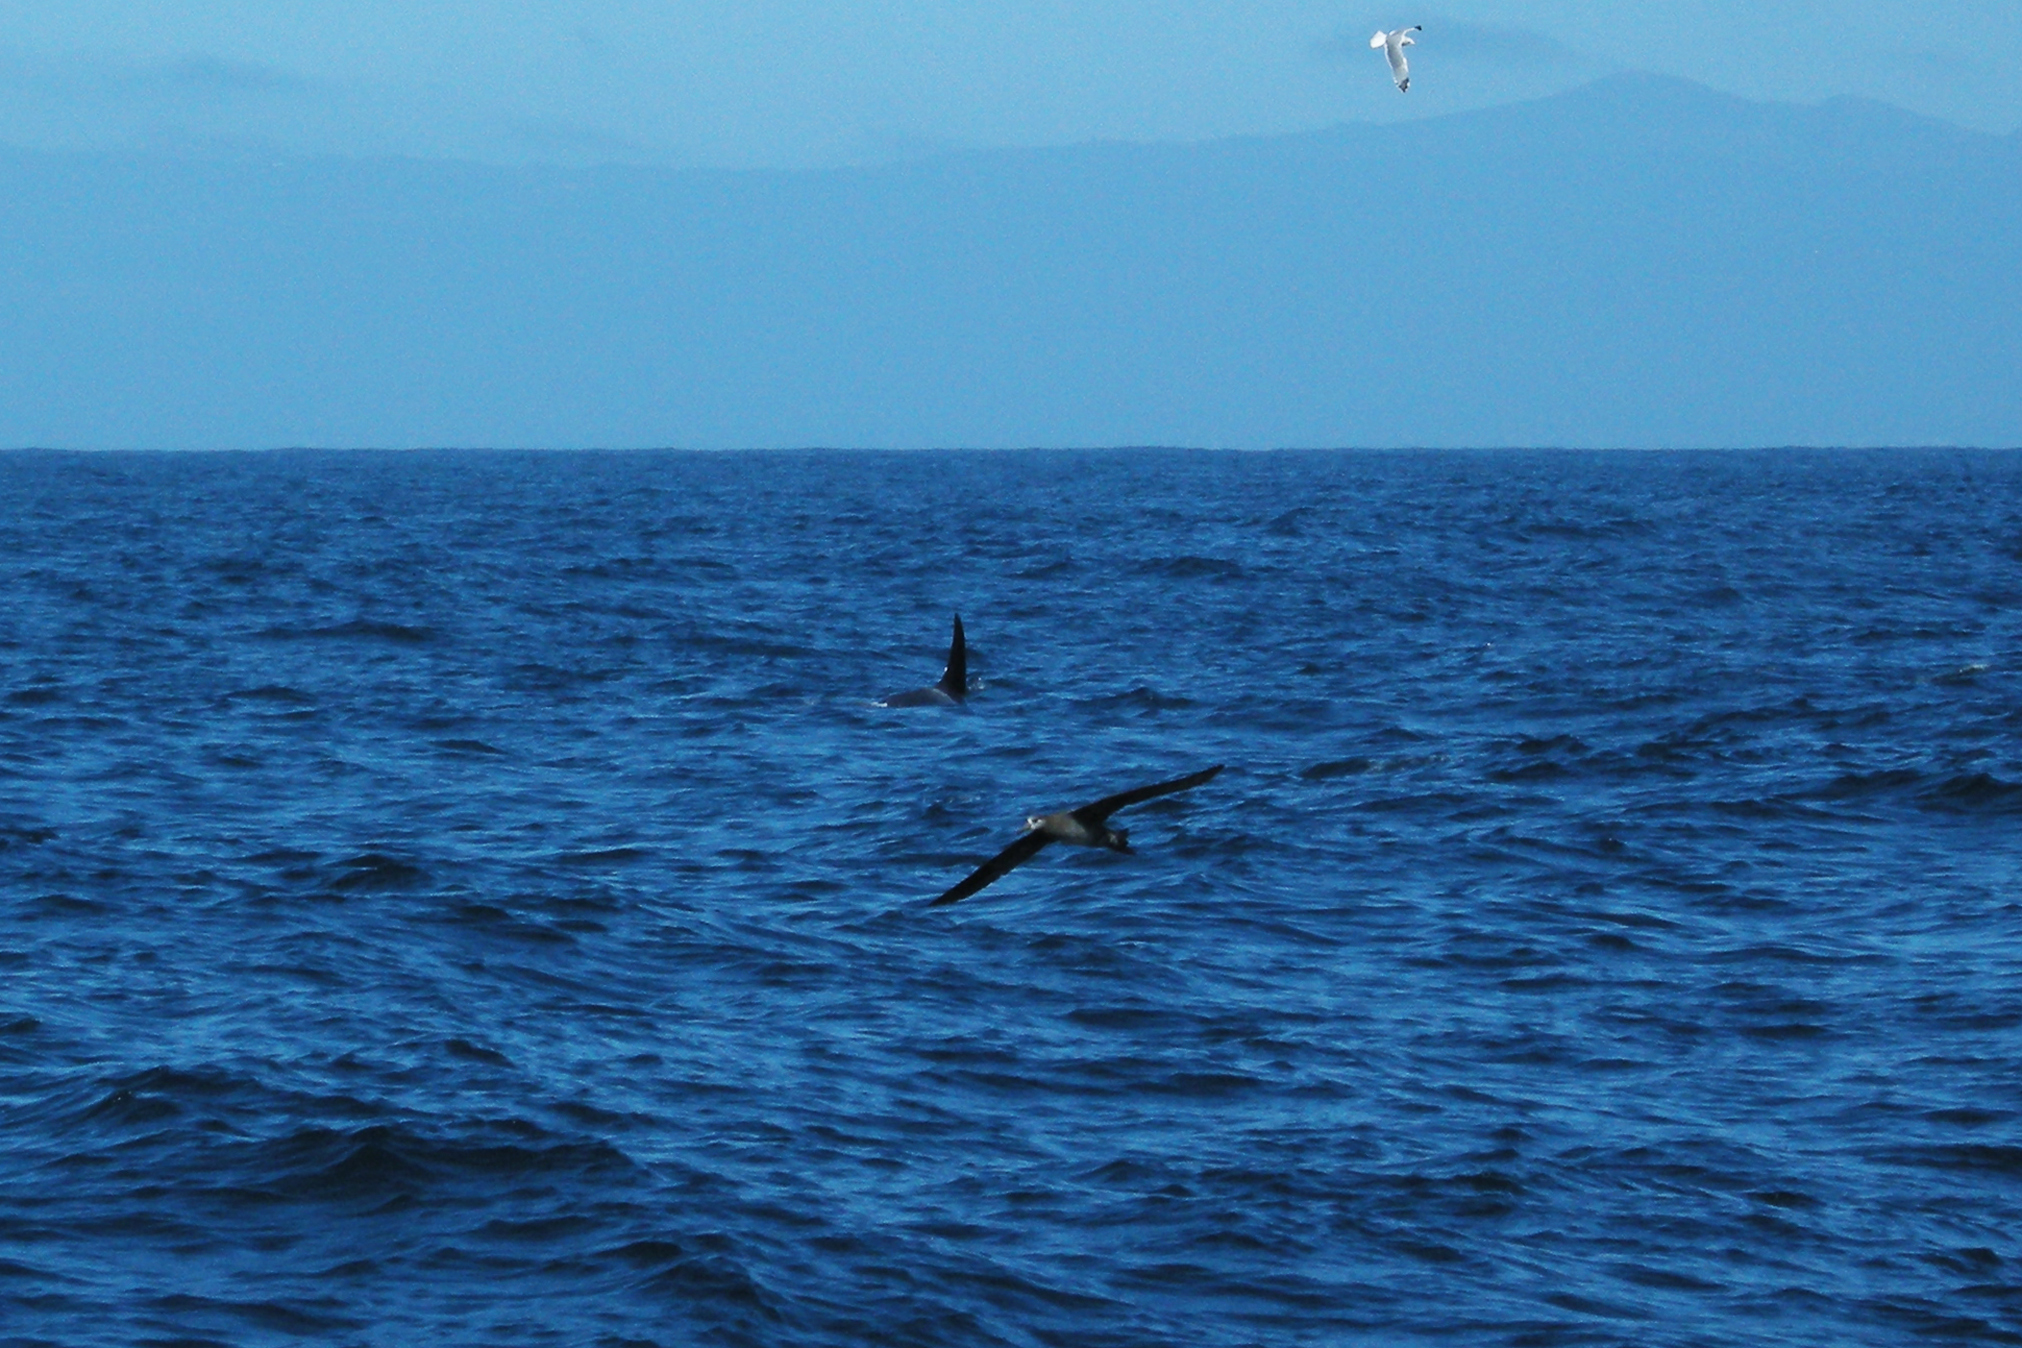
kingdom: Animalia
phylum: Chordata
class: Aves
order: Procellariiformes
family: Diomedeidae
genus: Phoebastria
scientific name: Phoebastria nigripes
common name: Black-footed albatross
